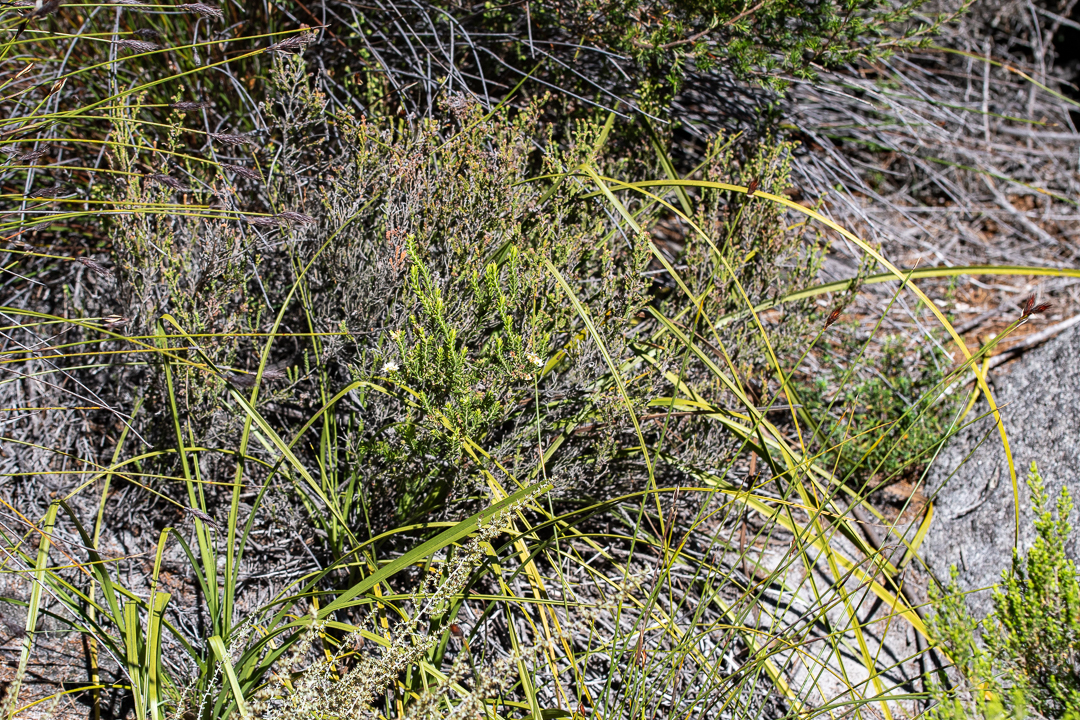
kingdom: Plantae
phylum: Tracheophyta
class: Magnoliopsida
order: Sapindales
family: Rutaceae
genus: Diosma
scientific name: Diosma oppositifolia
